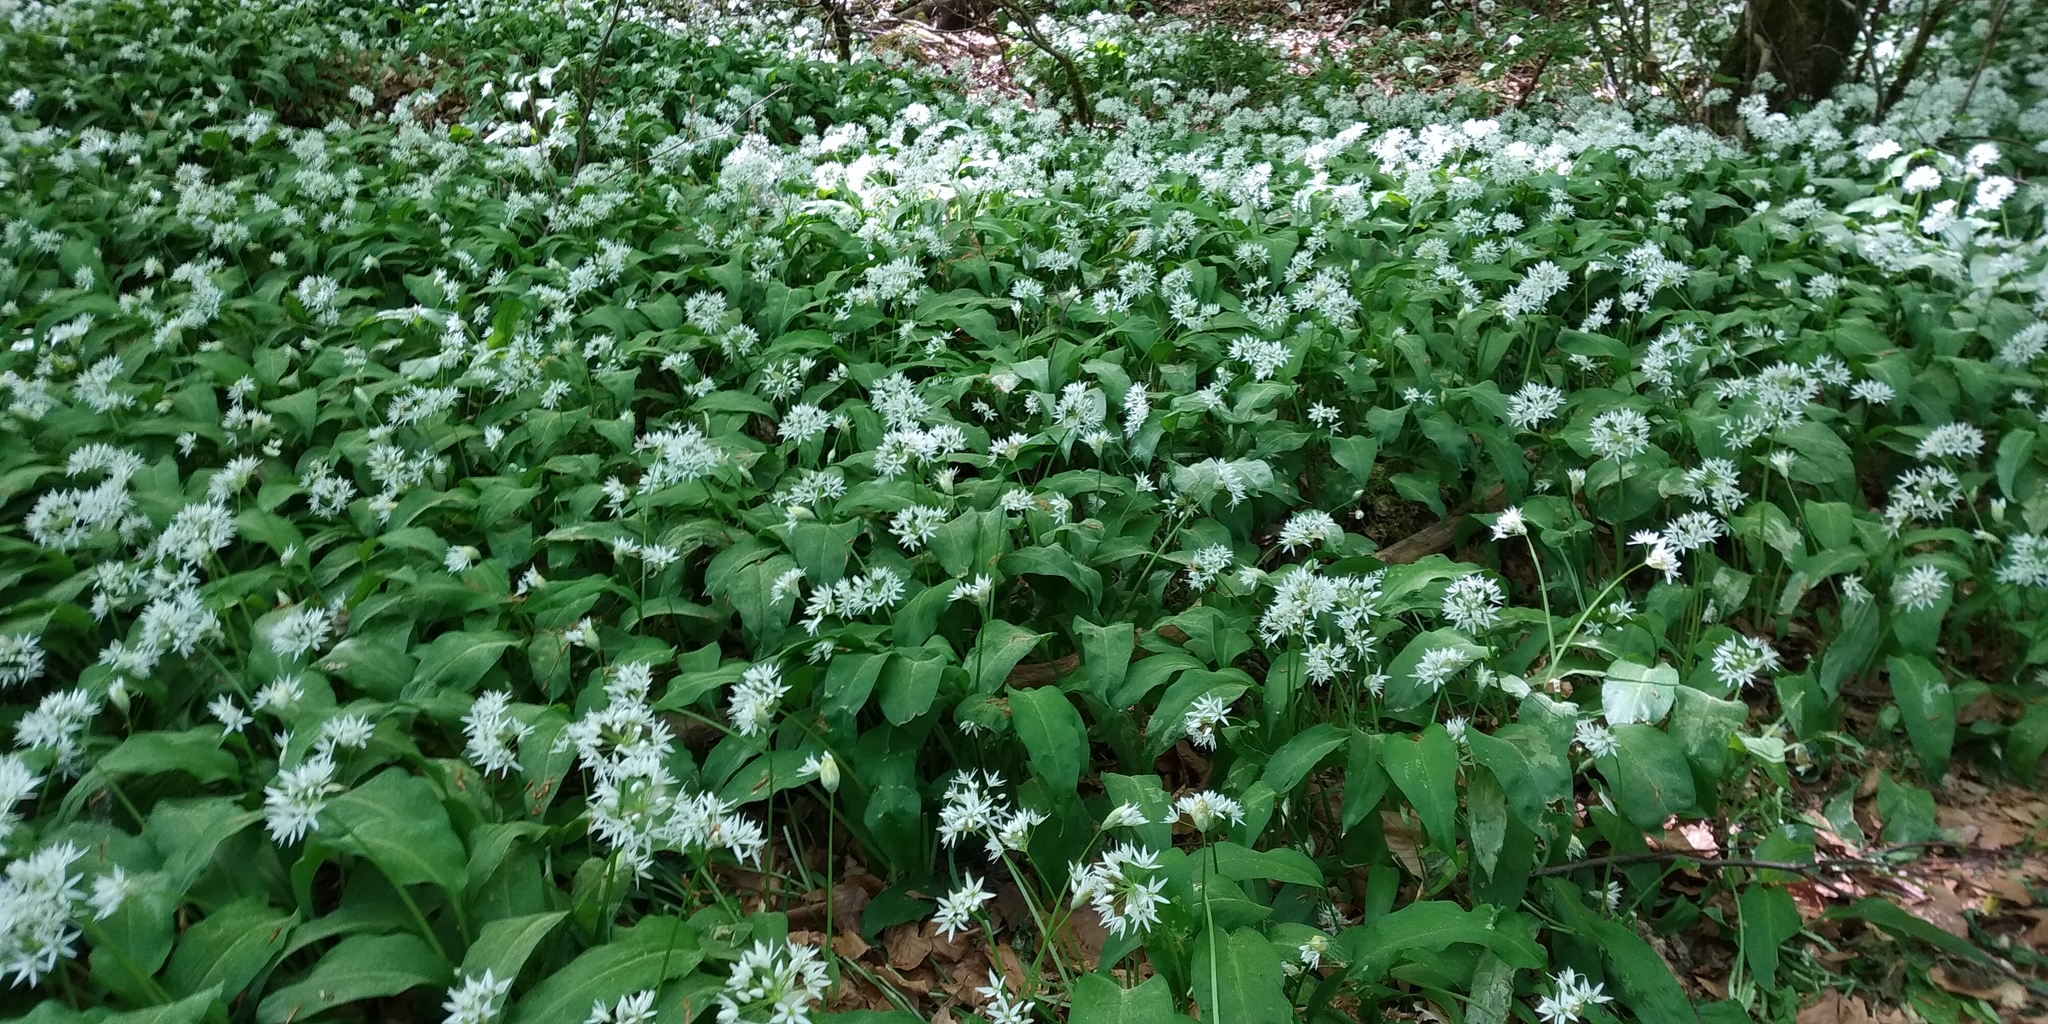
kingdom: Plantae
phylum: Tracheophyta
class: Liliopsida
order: Asparagales
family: Amaryllidaceae
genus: Allium
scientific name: Allium ursinum
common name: Ramsons
